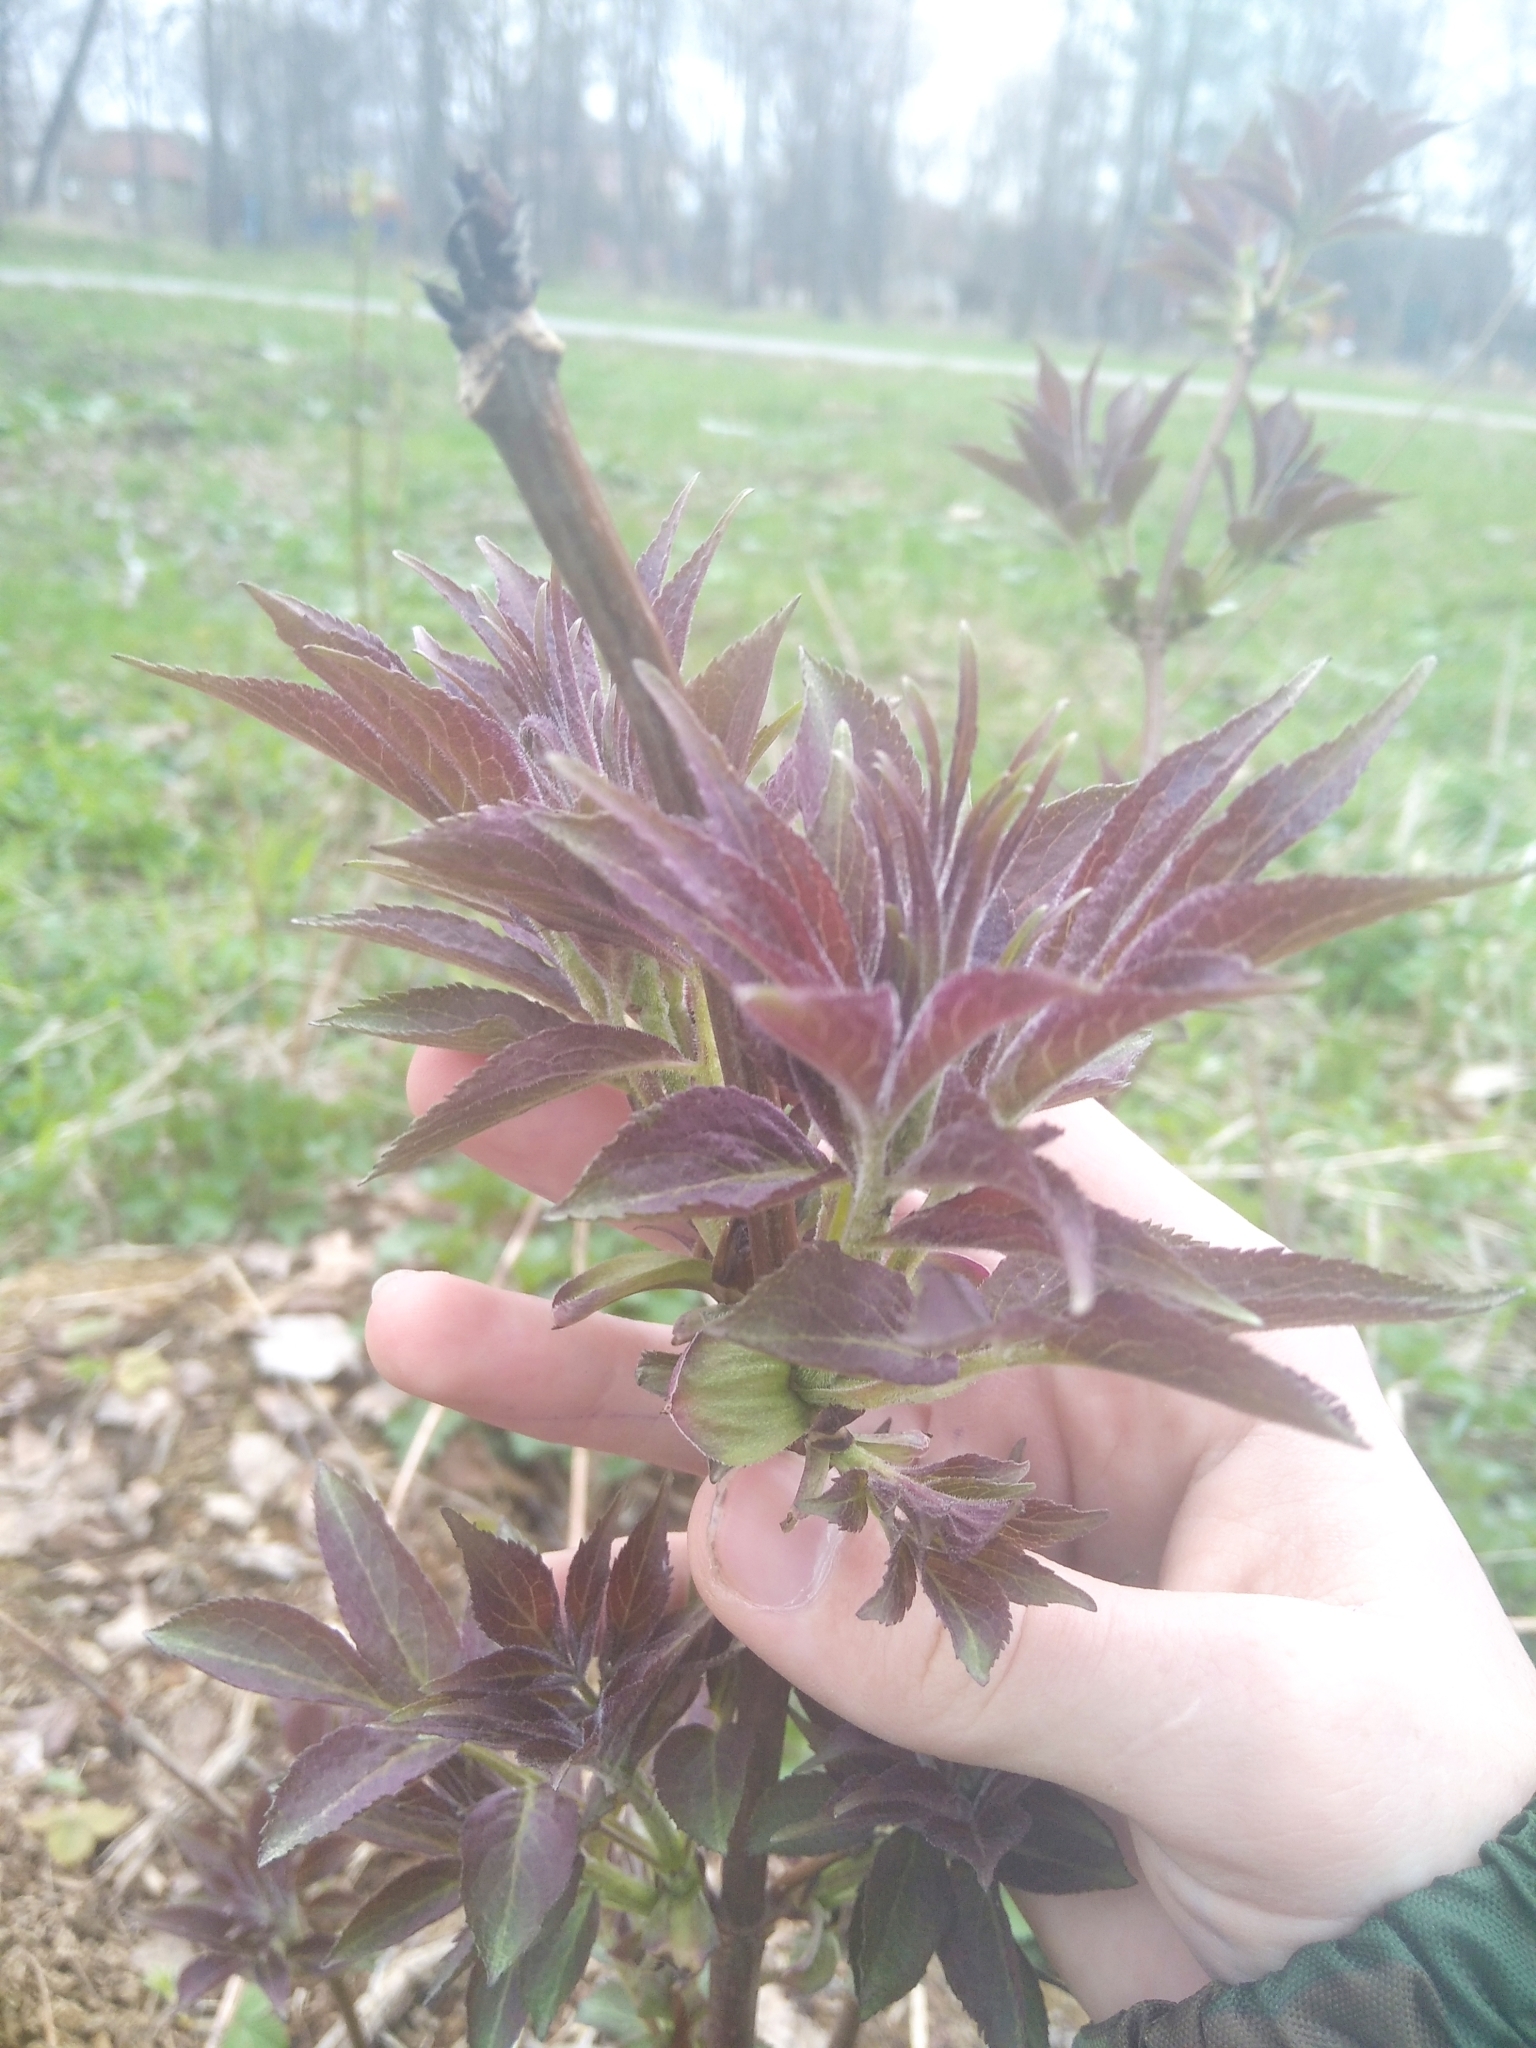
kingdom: Plantae
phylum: Tracheophyta
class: Magnoliopsida
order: Dipsacales
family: Viburnaceae
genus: Sambucus
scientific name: Sambucus racemosa
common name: Red-berried elder
